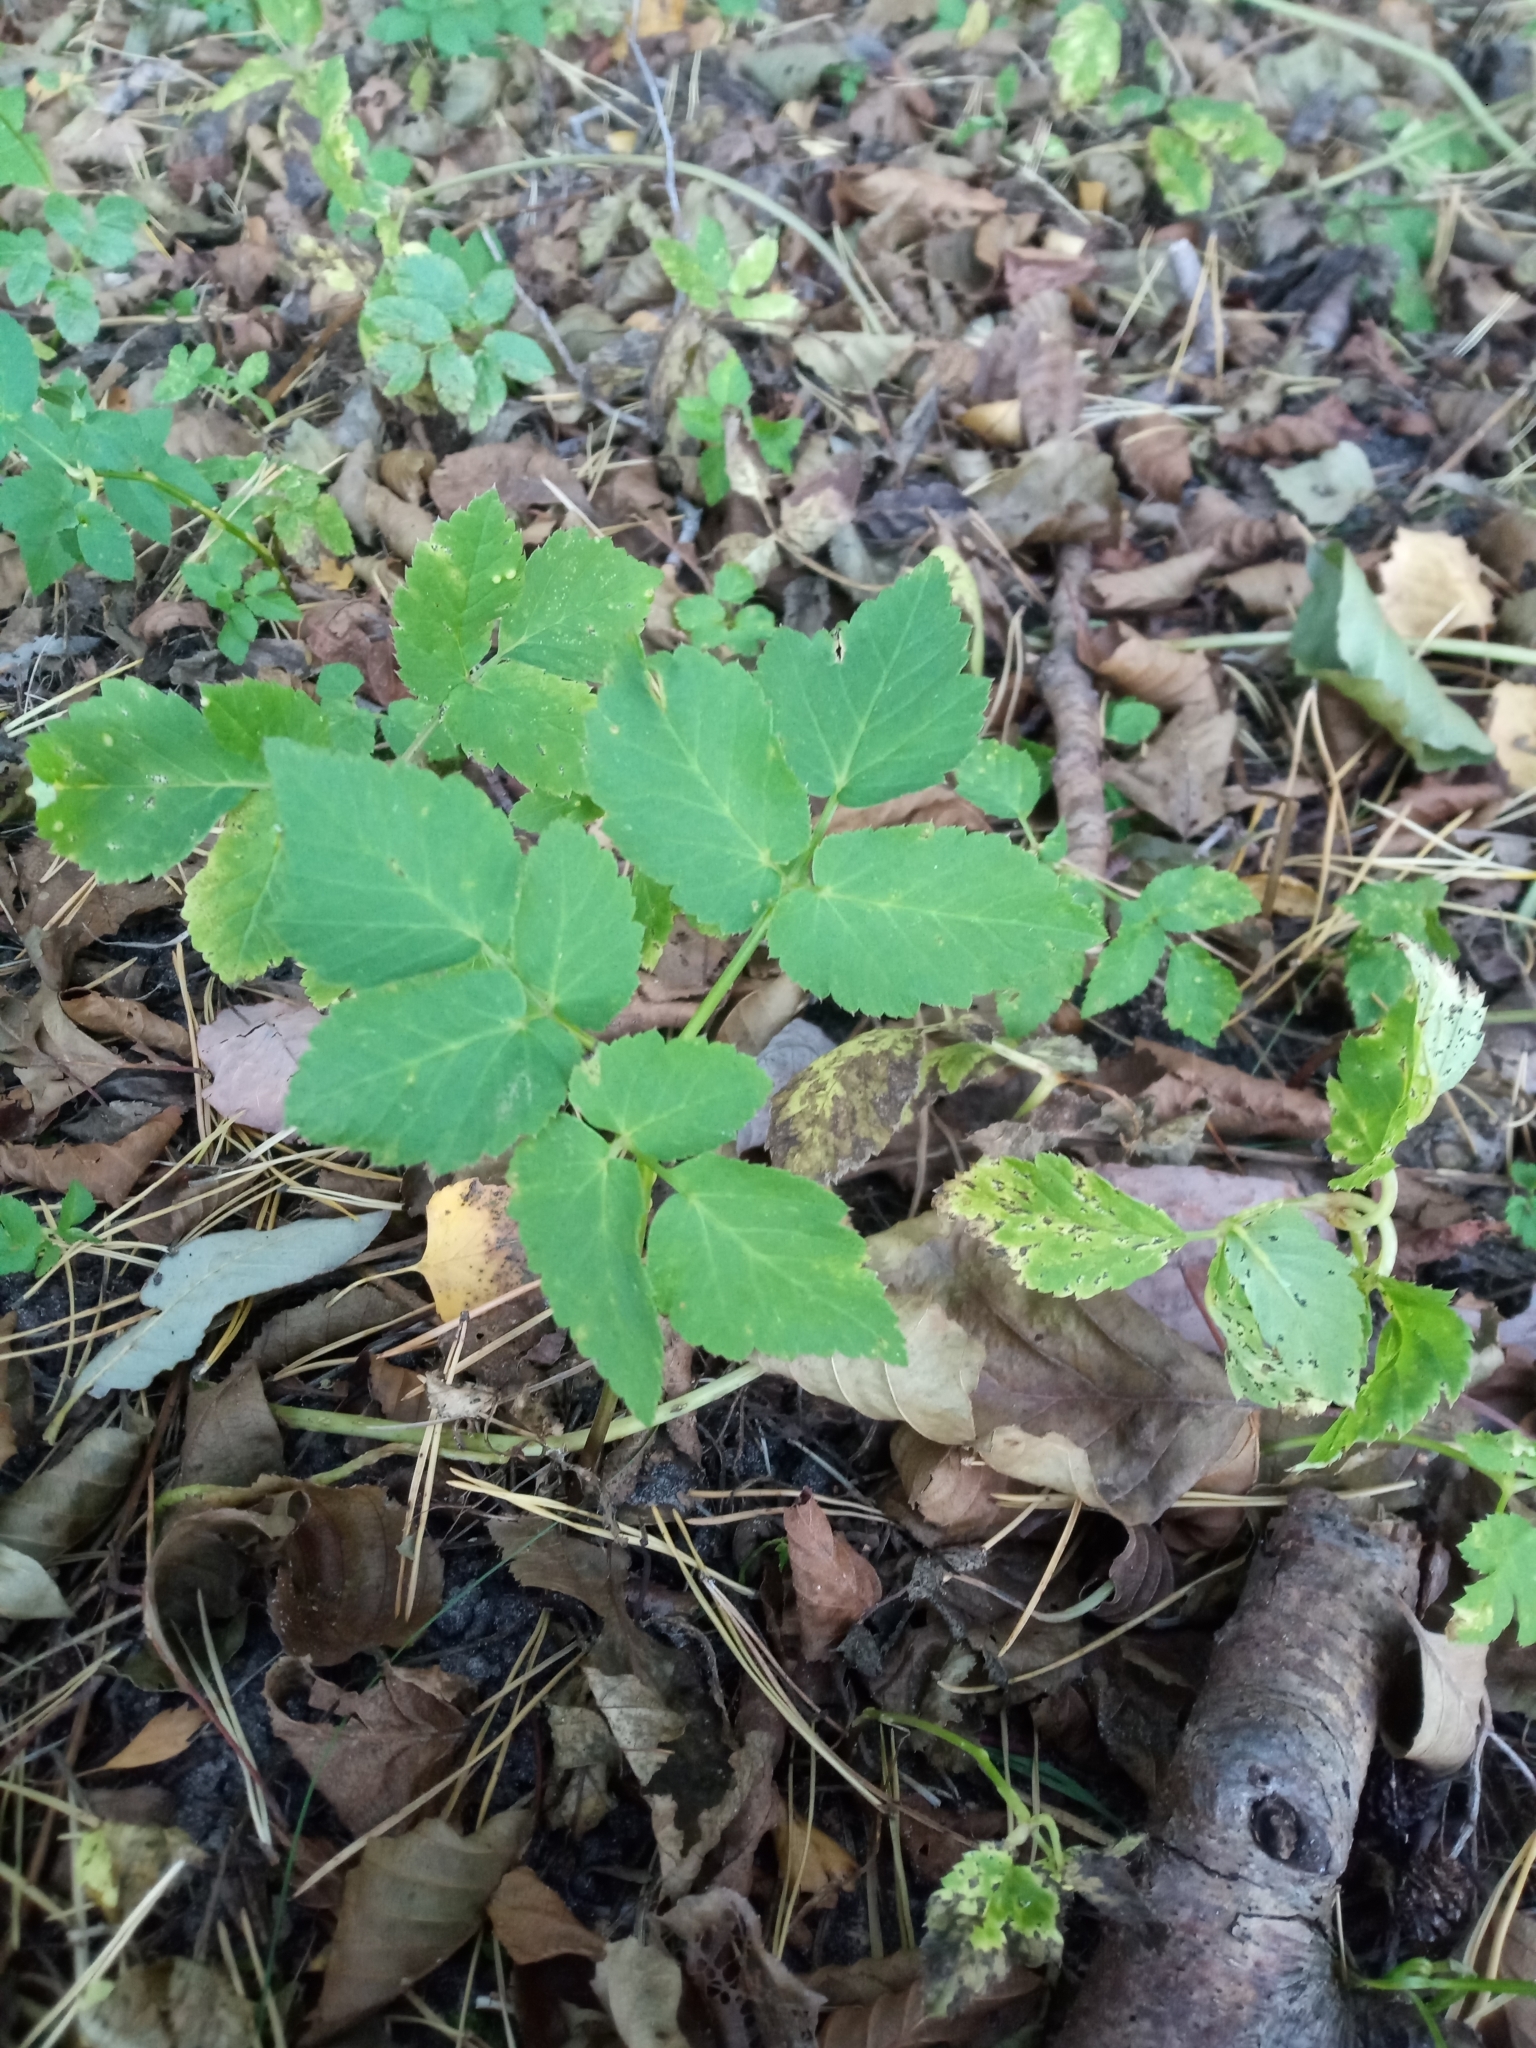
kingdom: Plantae
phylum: Tracheophyta
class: Magnoliopsida
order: Apiales
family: Apiaceae
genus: Aegopodium
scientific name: Aegopodium podagraria
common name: Ground-elder
